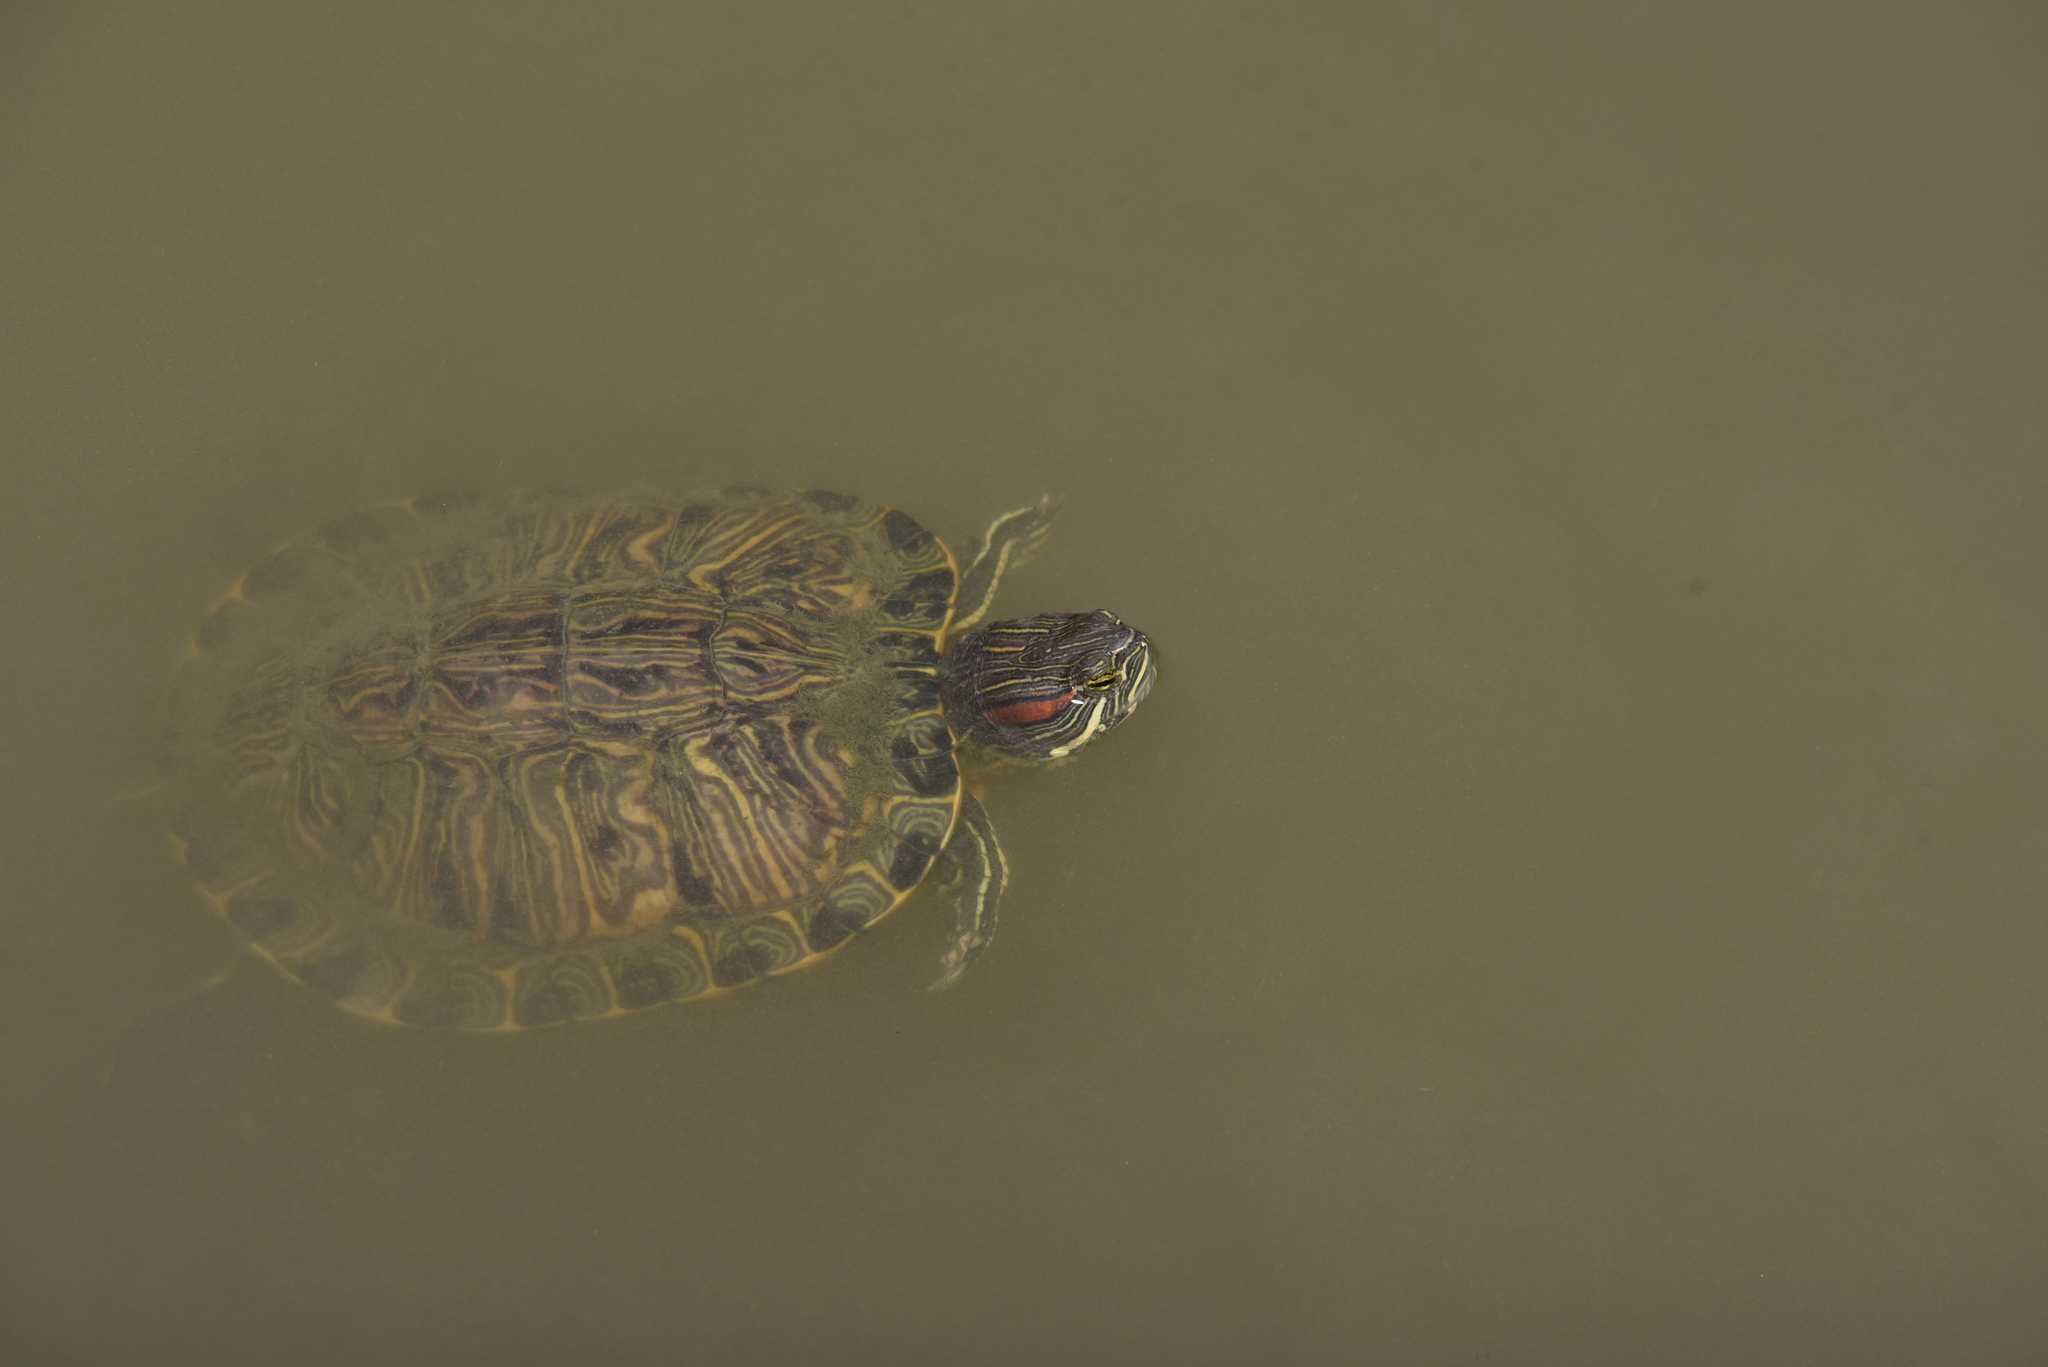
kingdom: Animalia
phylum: Chordata
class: Testudines
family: Emydidae
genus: Trachemys
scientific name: Trachemys scripta
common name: Slider
